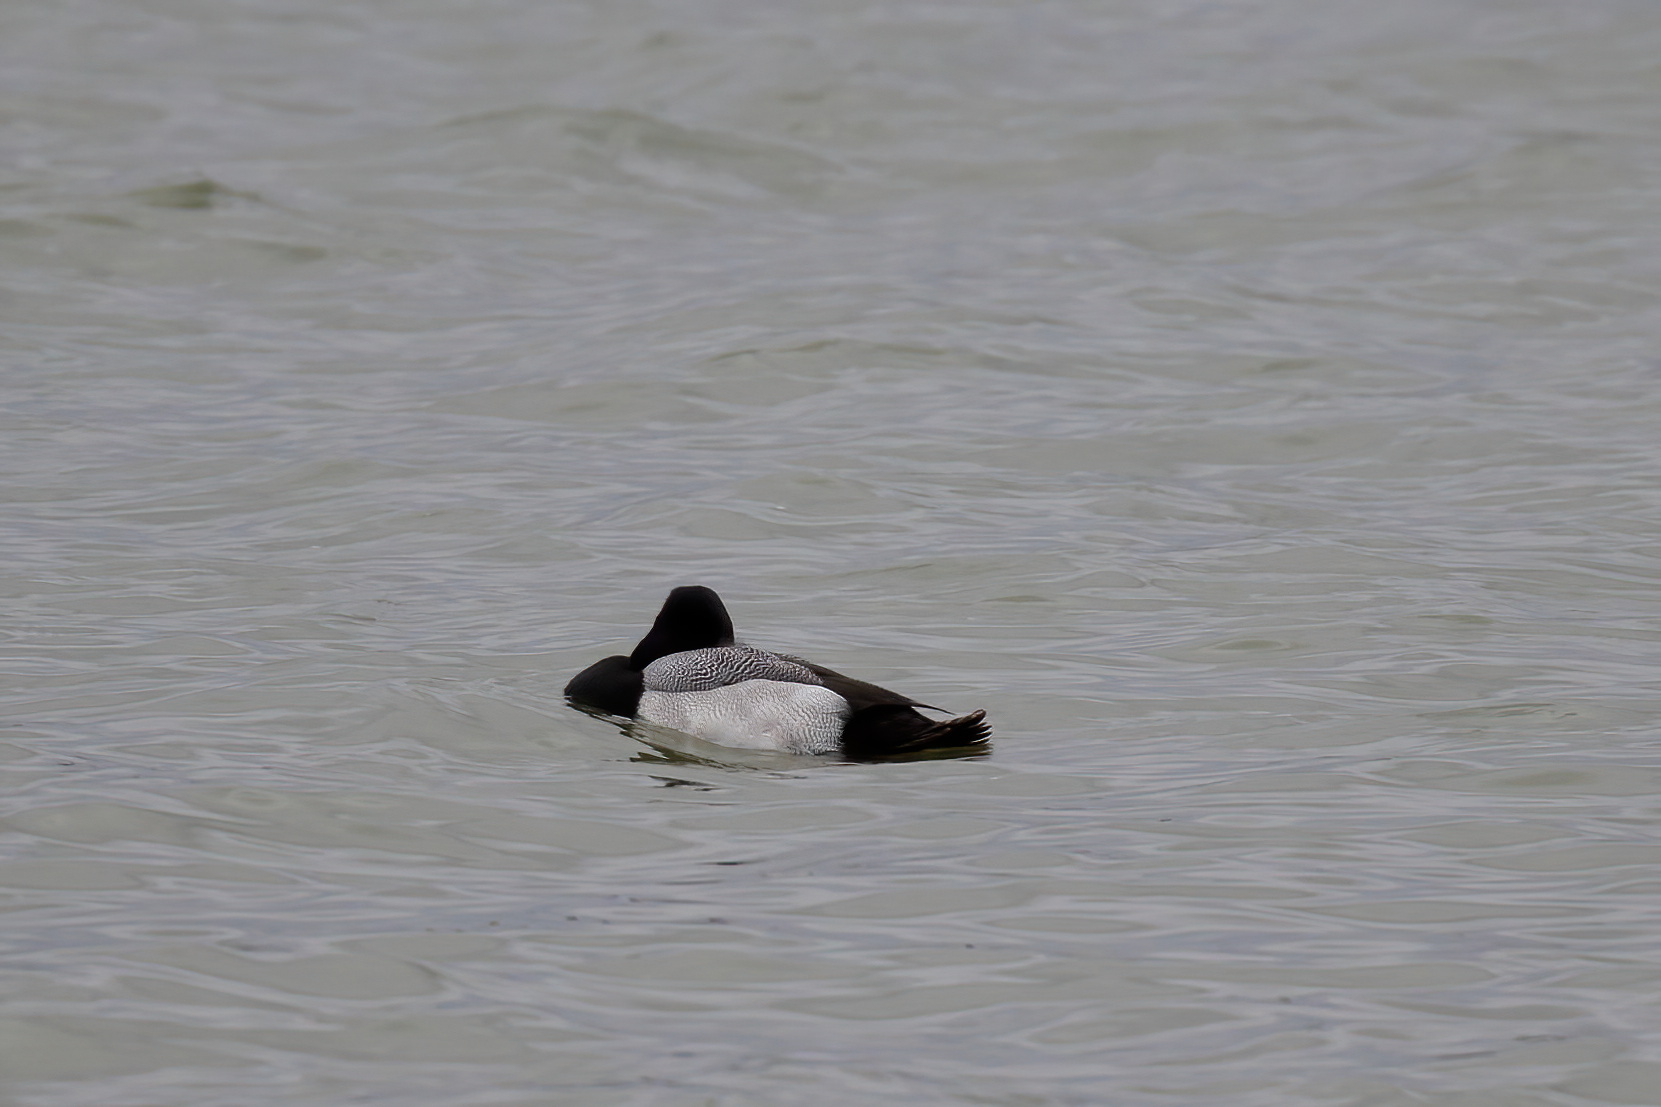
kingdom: Animalia
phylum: Chordata
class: Aves
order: Anseriformes
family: Anatidae
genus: Aythya
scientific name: Aythya affinis
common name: Lesser scaup
